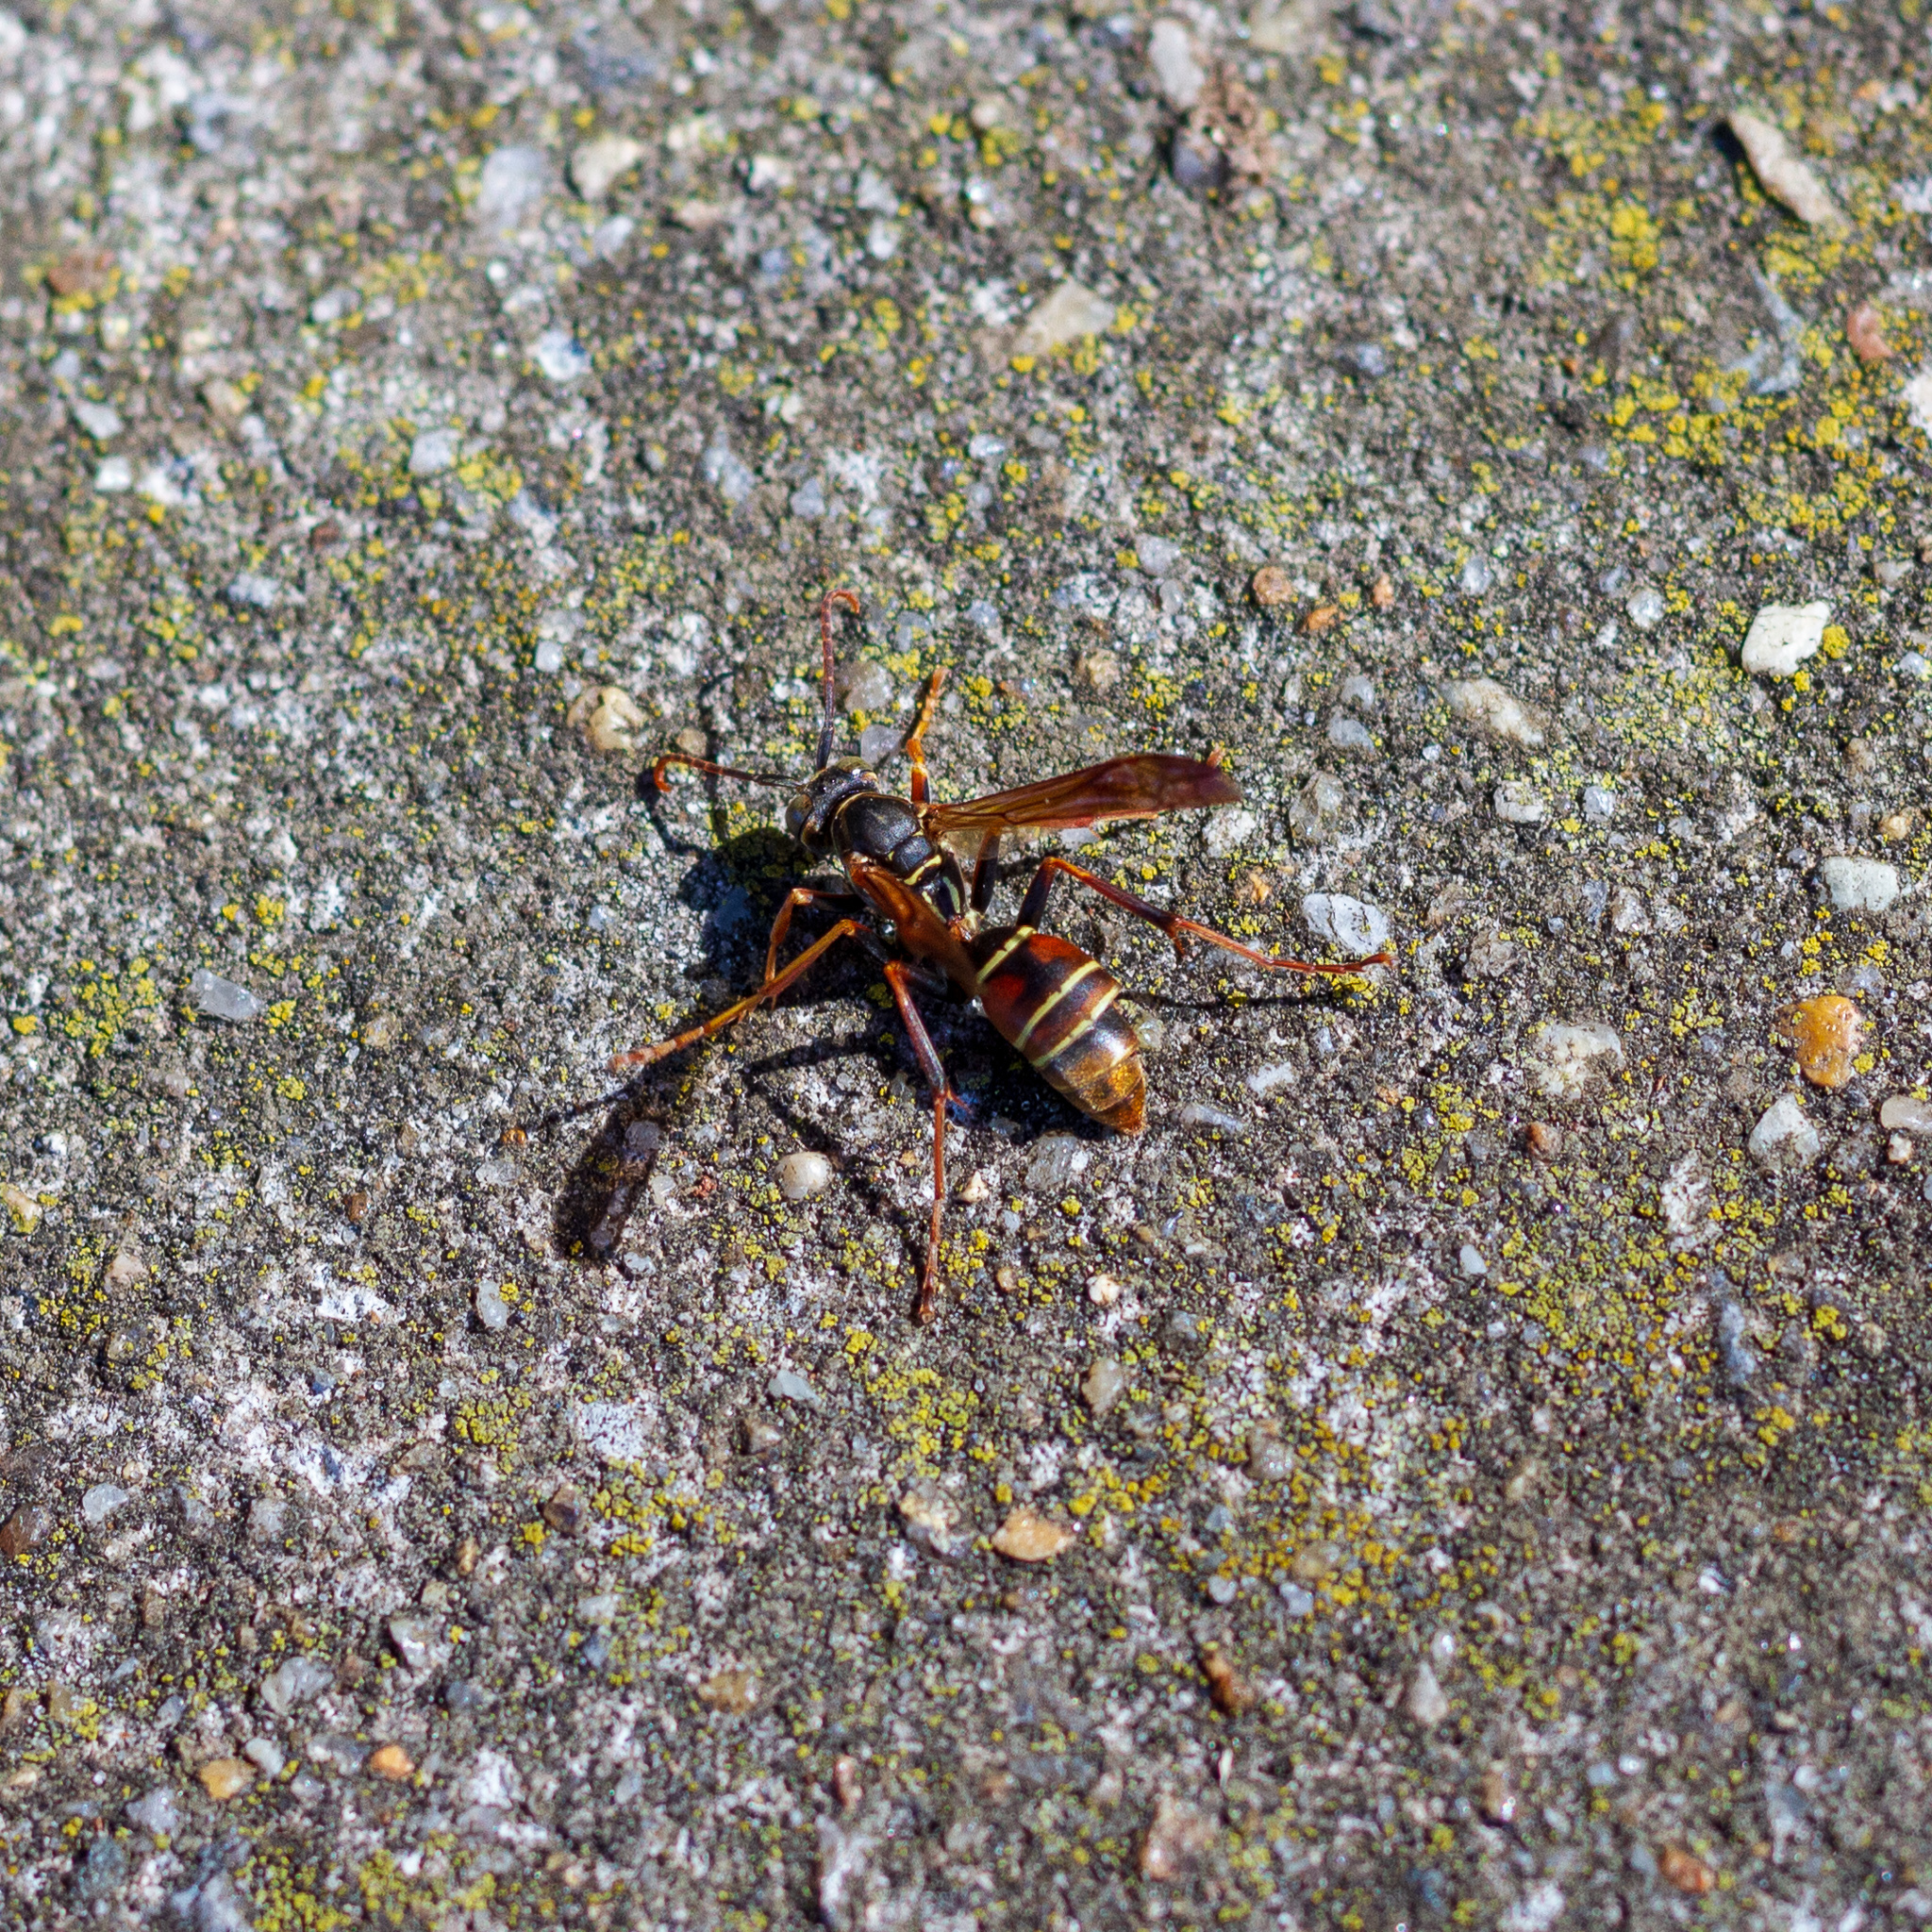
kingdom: Animalia
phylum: Arthropoda
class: Insecta
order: Hymenoptera
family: Eumenidae
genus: Polistes
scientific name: Polistes fuscatus
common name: Dark paper wasp
